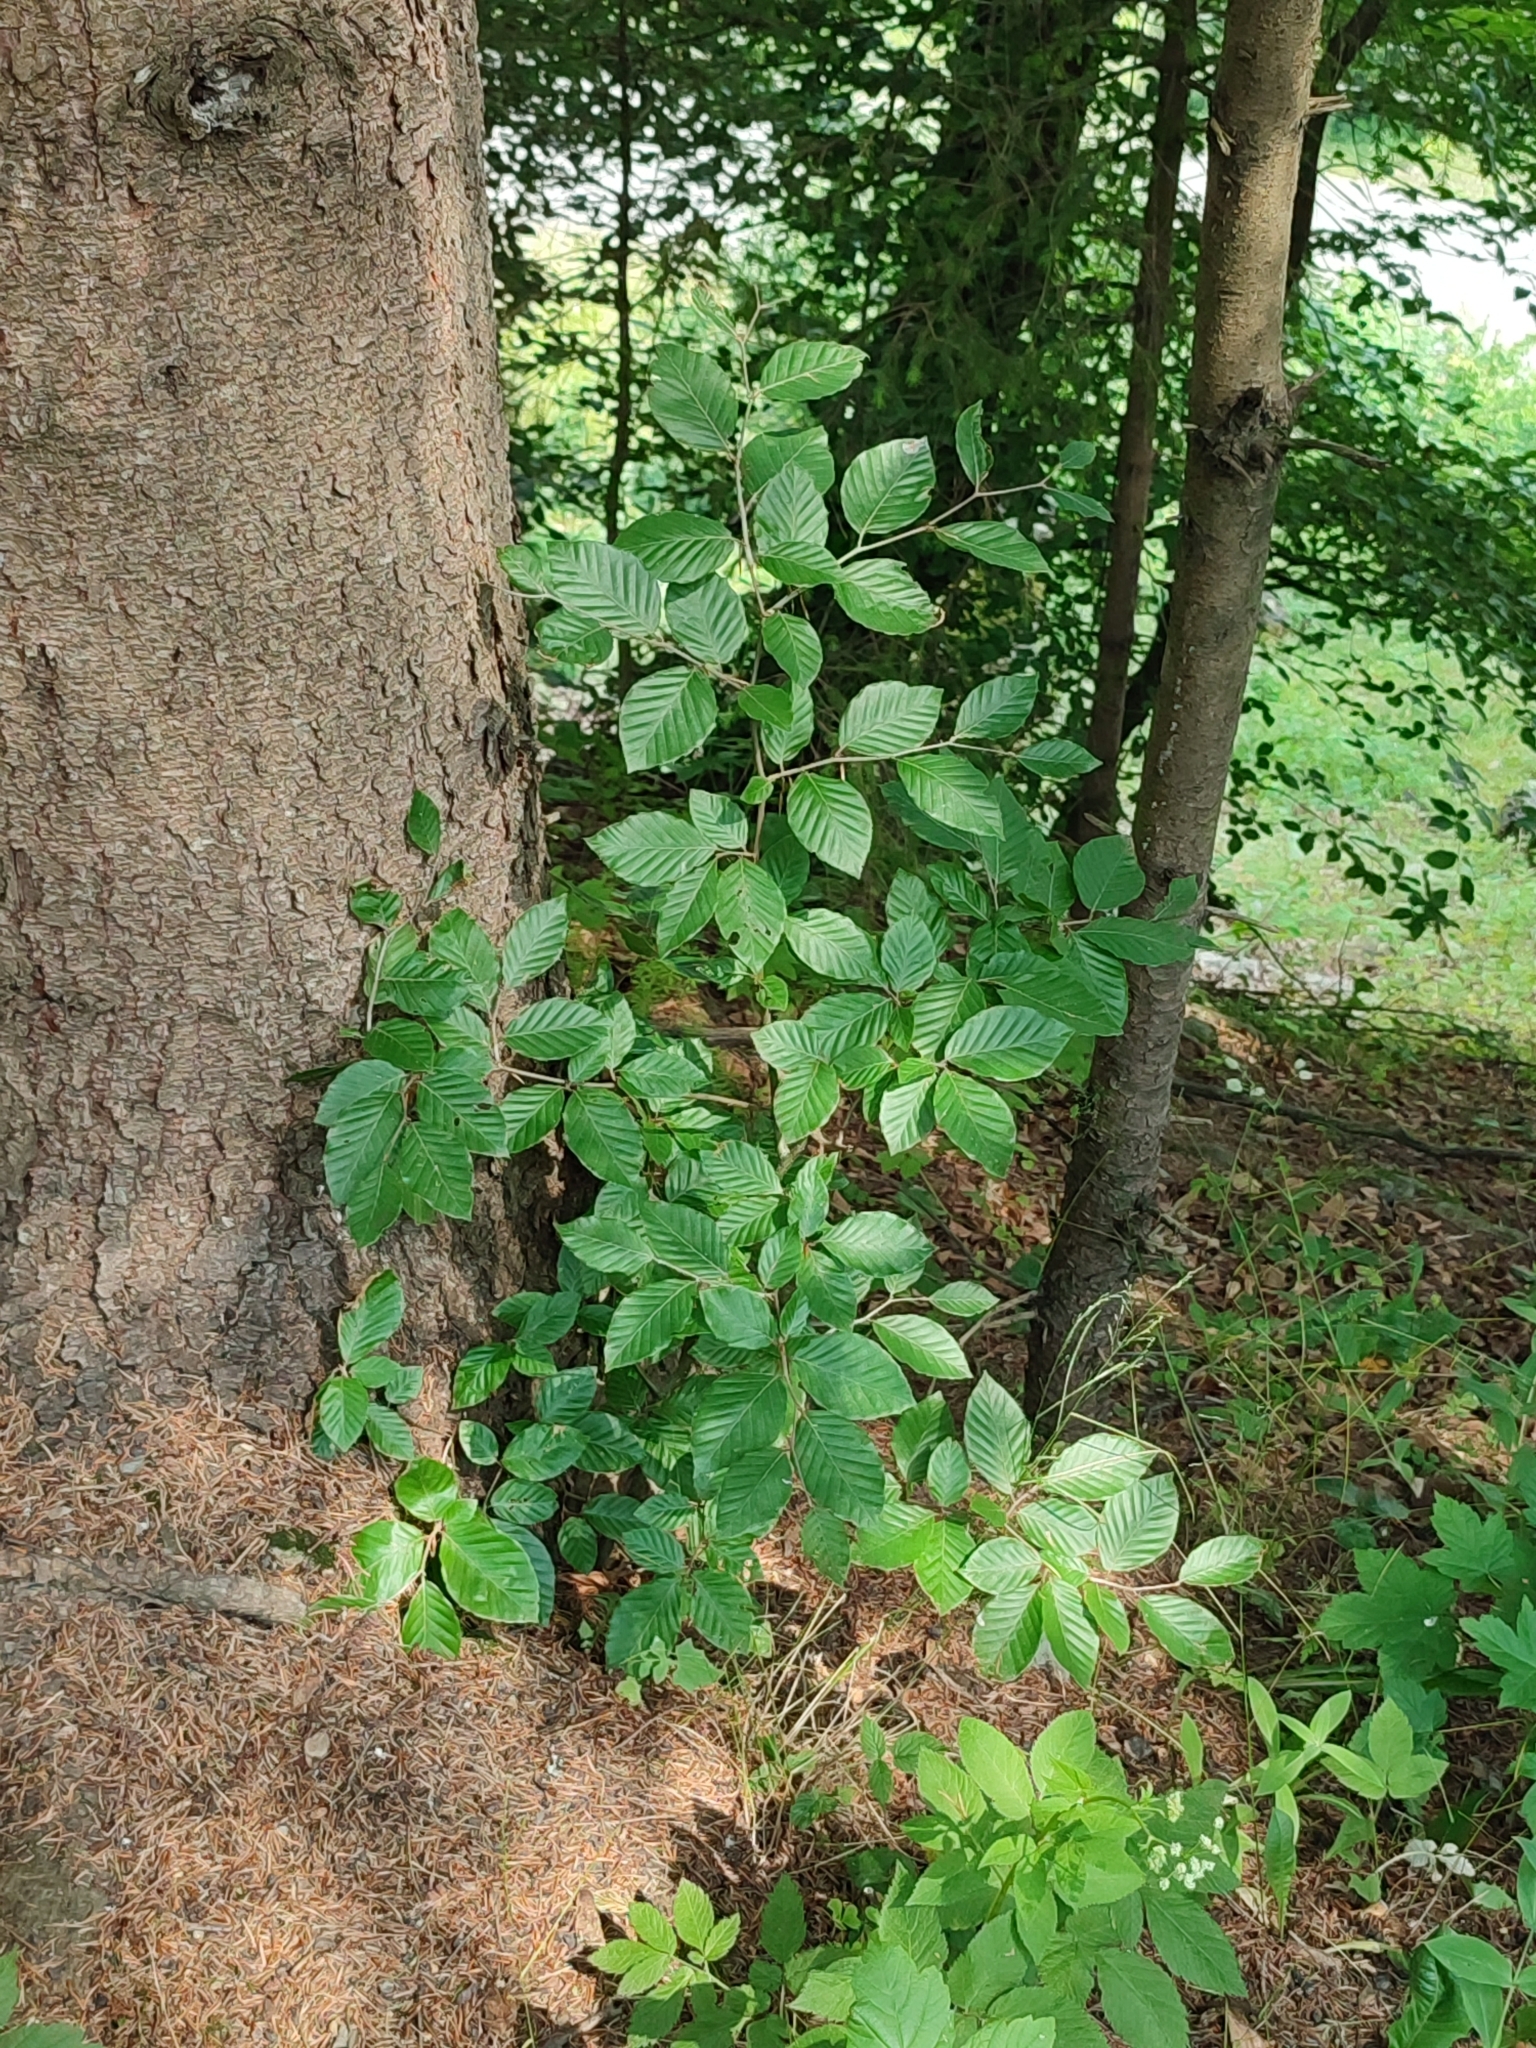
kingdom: Plantae
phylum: Tracheophyta
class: Magnoliopsida
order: Fagales
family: Fagaceae
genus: Fagus
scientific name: Fagus sylvatica
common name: Beech
